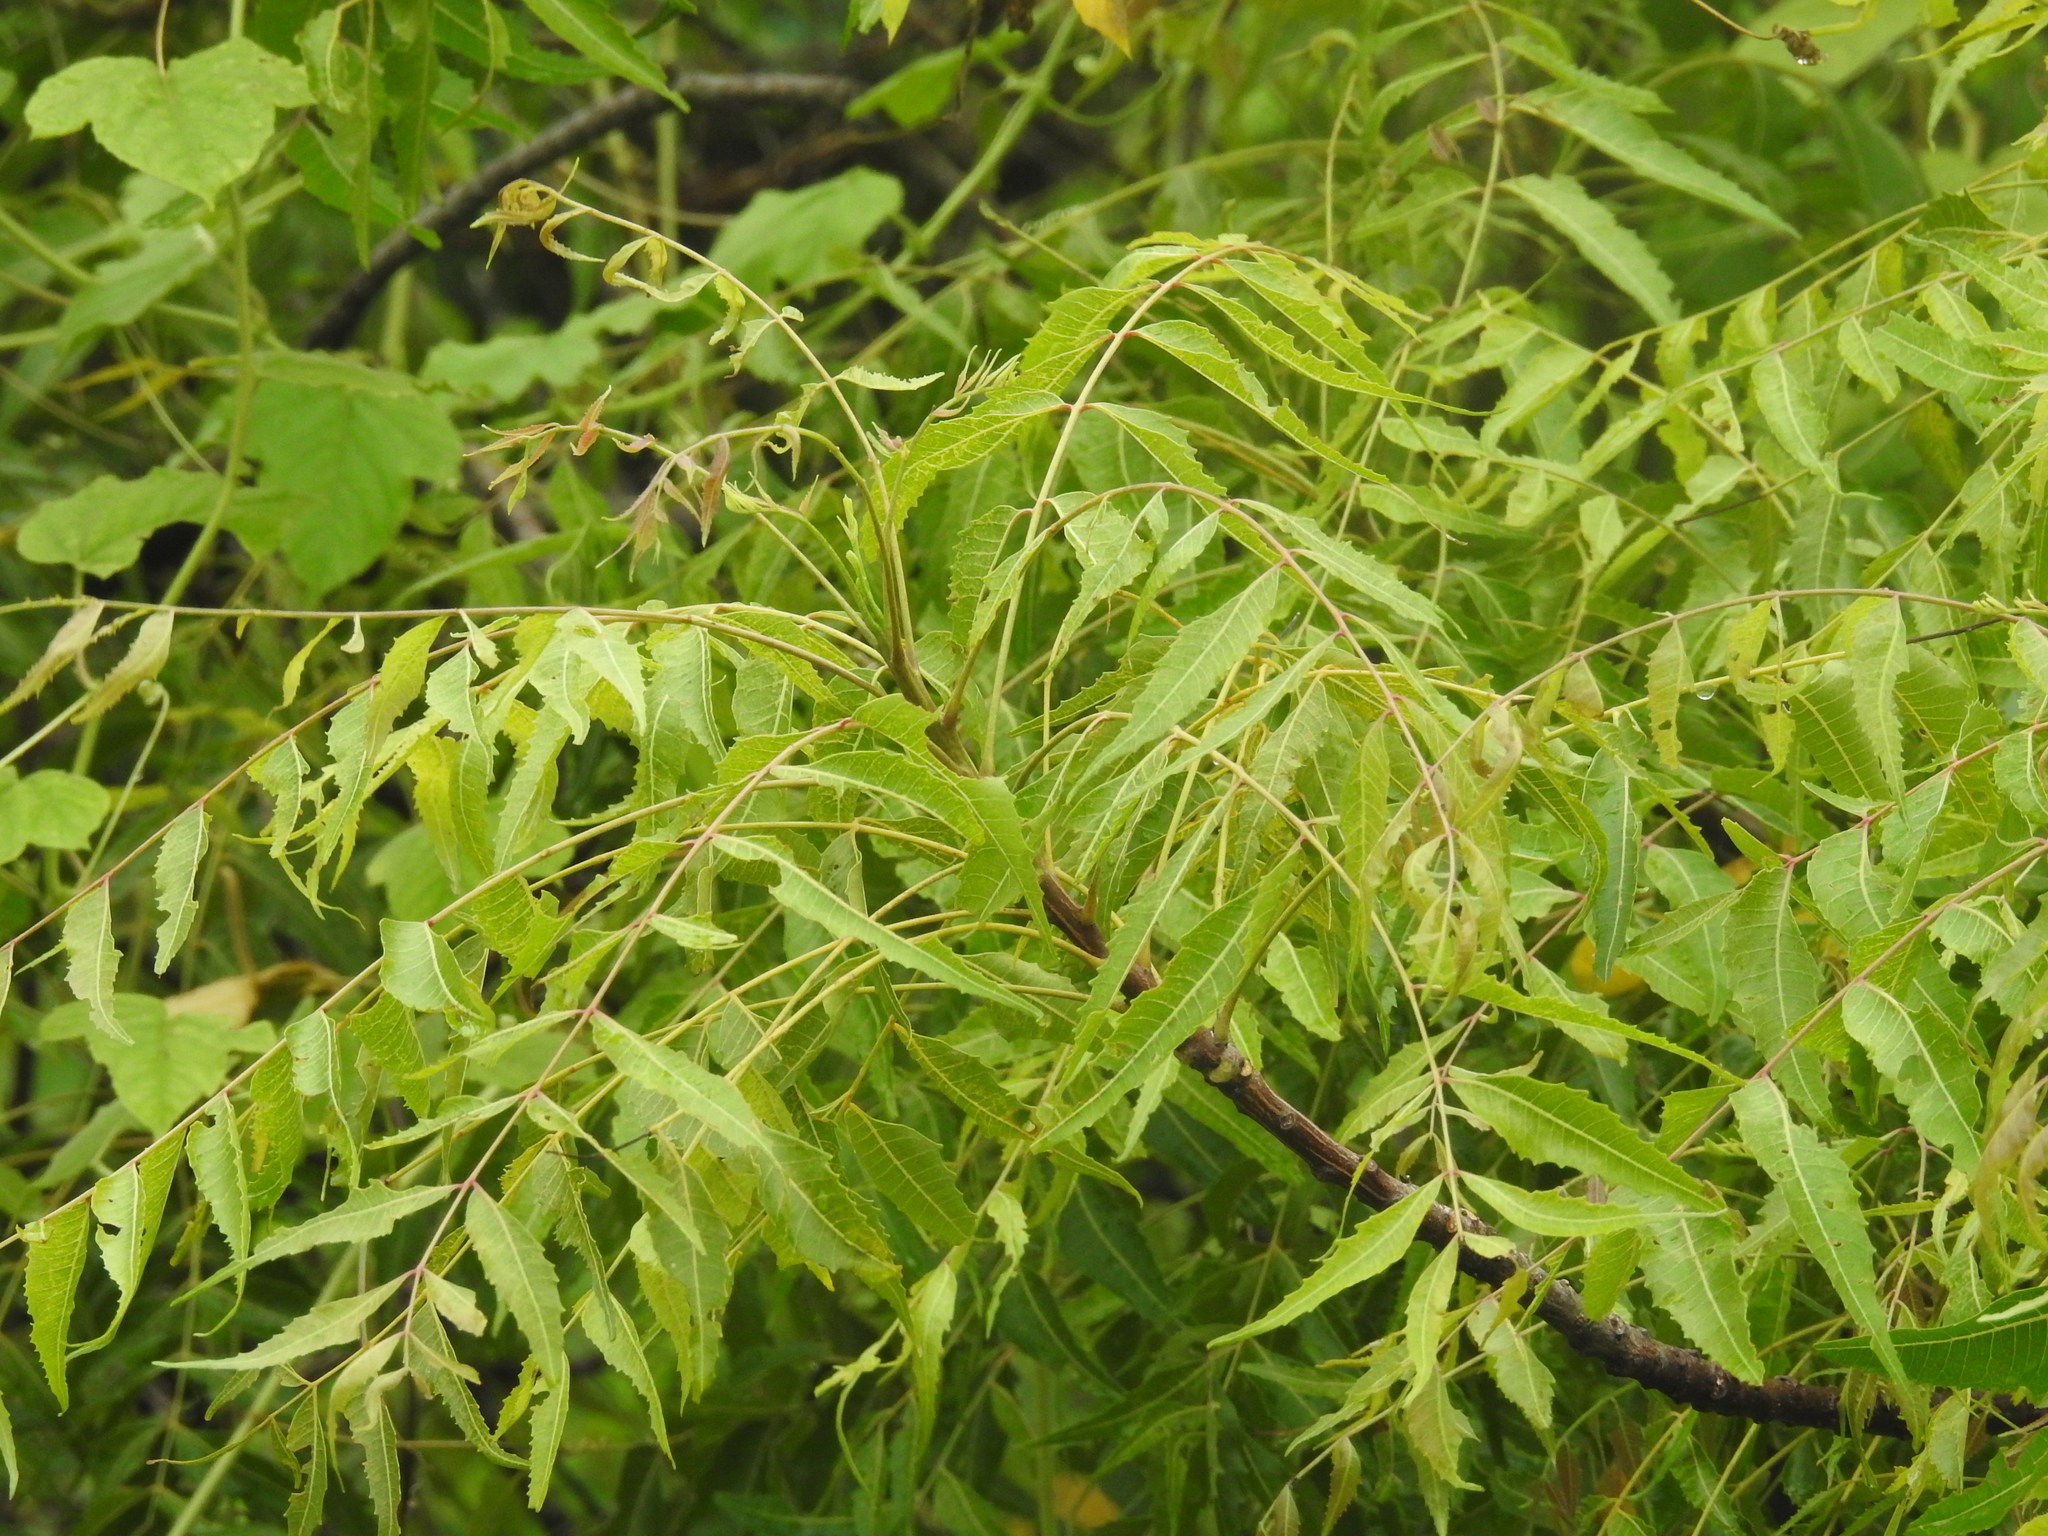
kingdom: Plantae
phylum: Tracheophyta
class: Magnoliopsida
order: Sapindales
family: Meliaceae
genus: Azadirachta
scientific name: Azadirachta indica
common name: Neem
